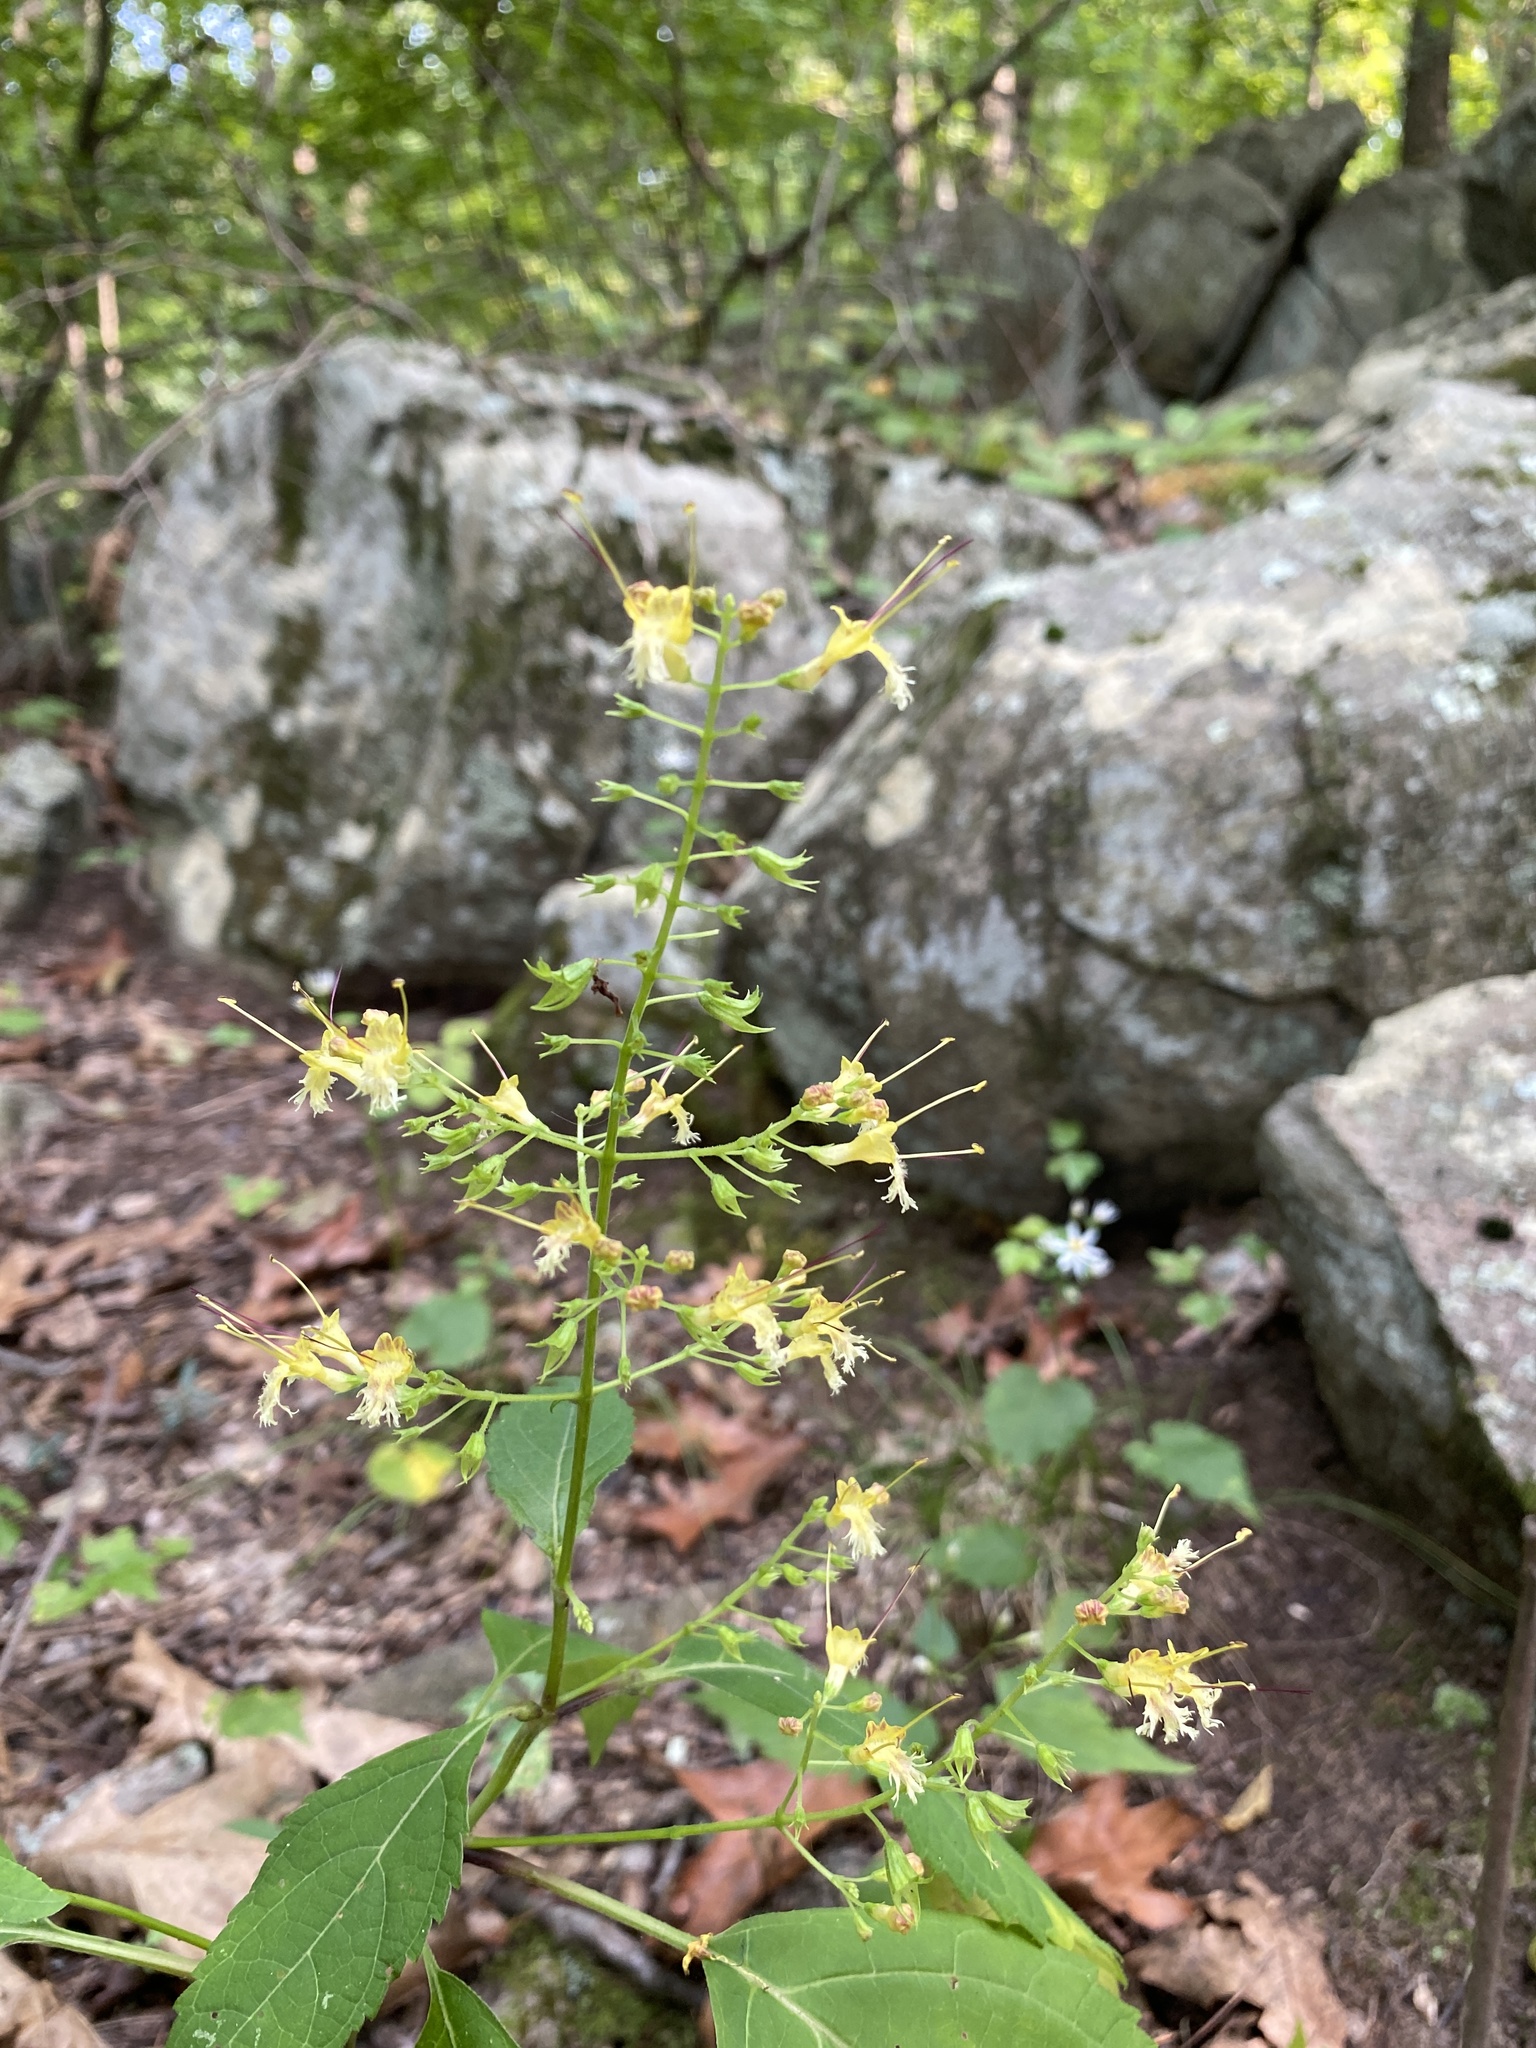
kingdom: Plantae
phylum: Tracheophyta
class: Magnoliopsida
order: Lamiales
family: Lamiaceae
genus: Collinsonia
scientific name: Collinsonia canadensis
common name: Northern horsebalm
